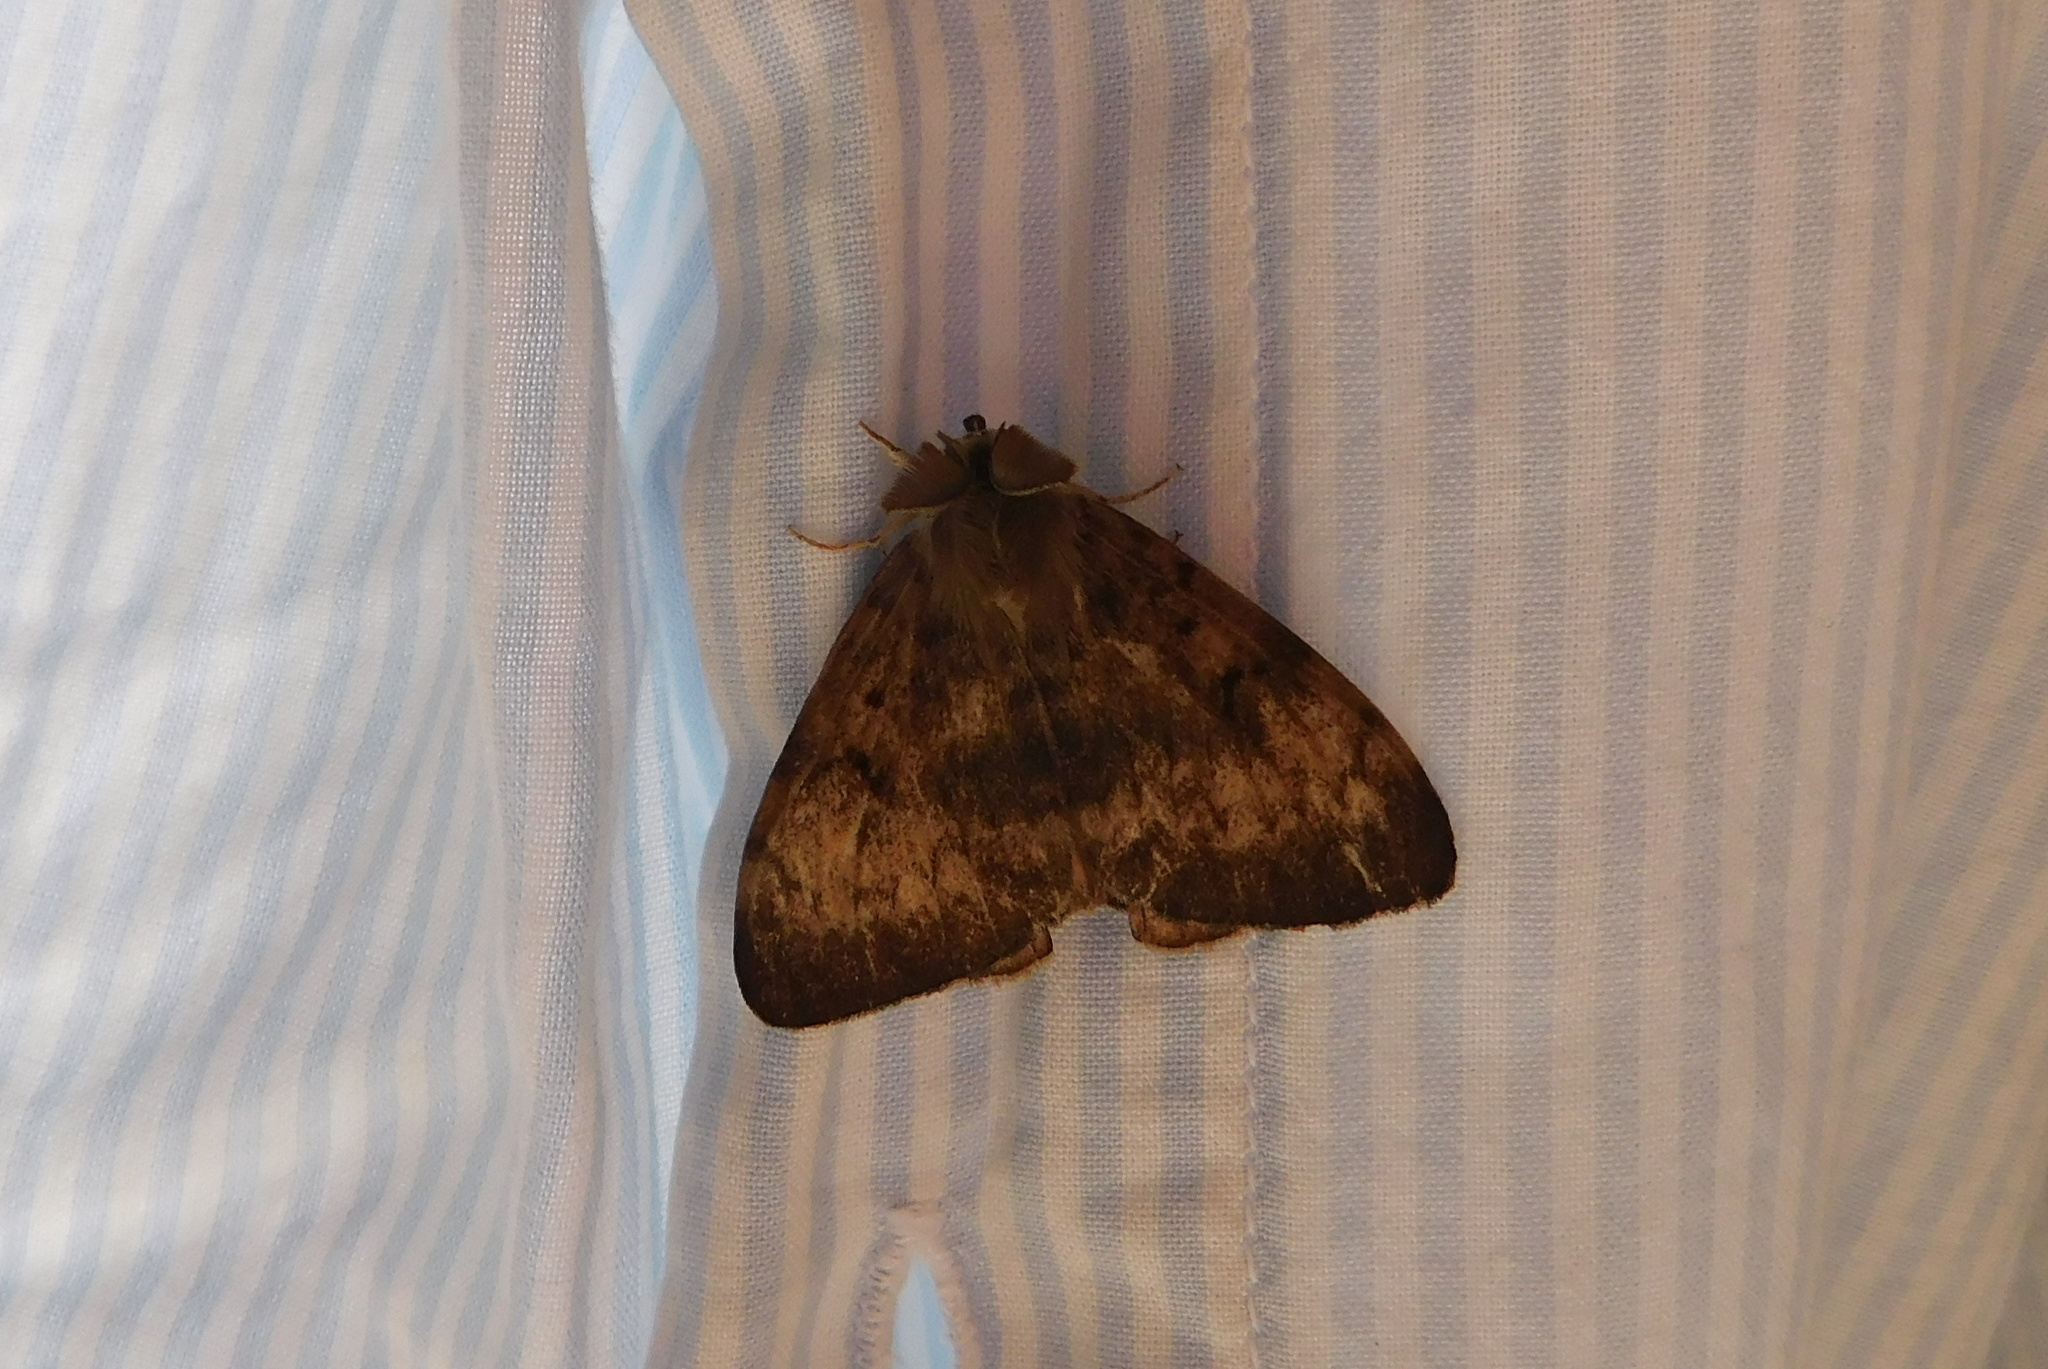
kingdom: Animalia
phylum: Arthropoda
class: Insecta
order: Lepidoptera
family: Erebidae
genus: Lymantria
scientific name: Lymantria dispar
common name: Gypsy moth
